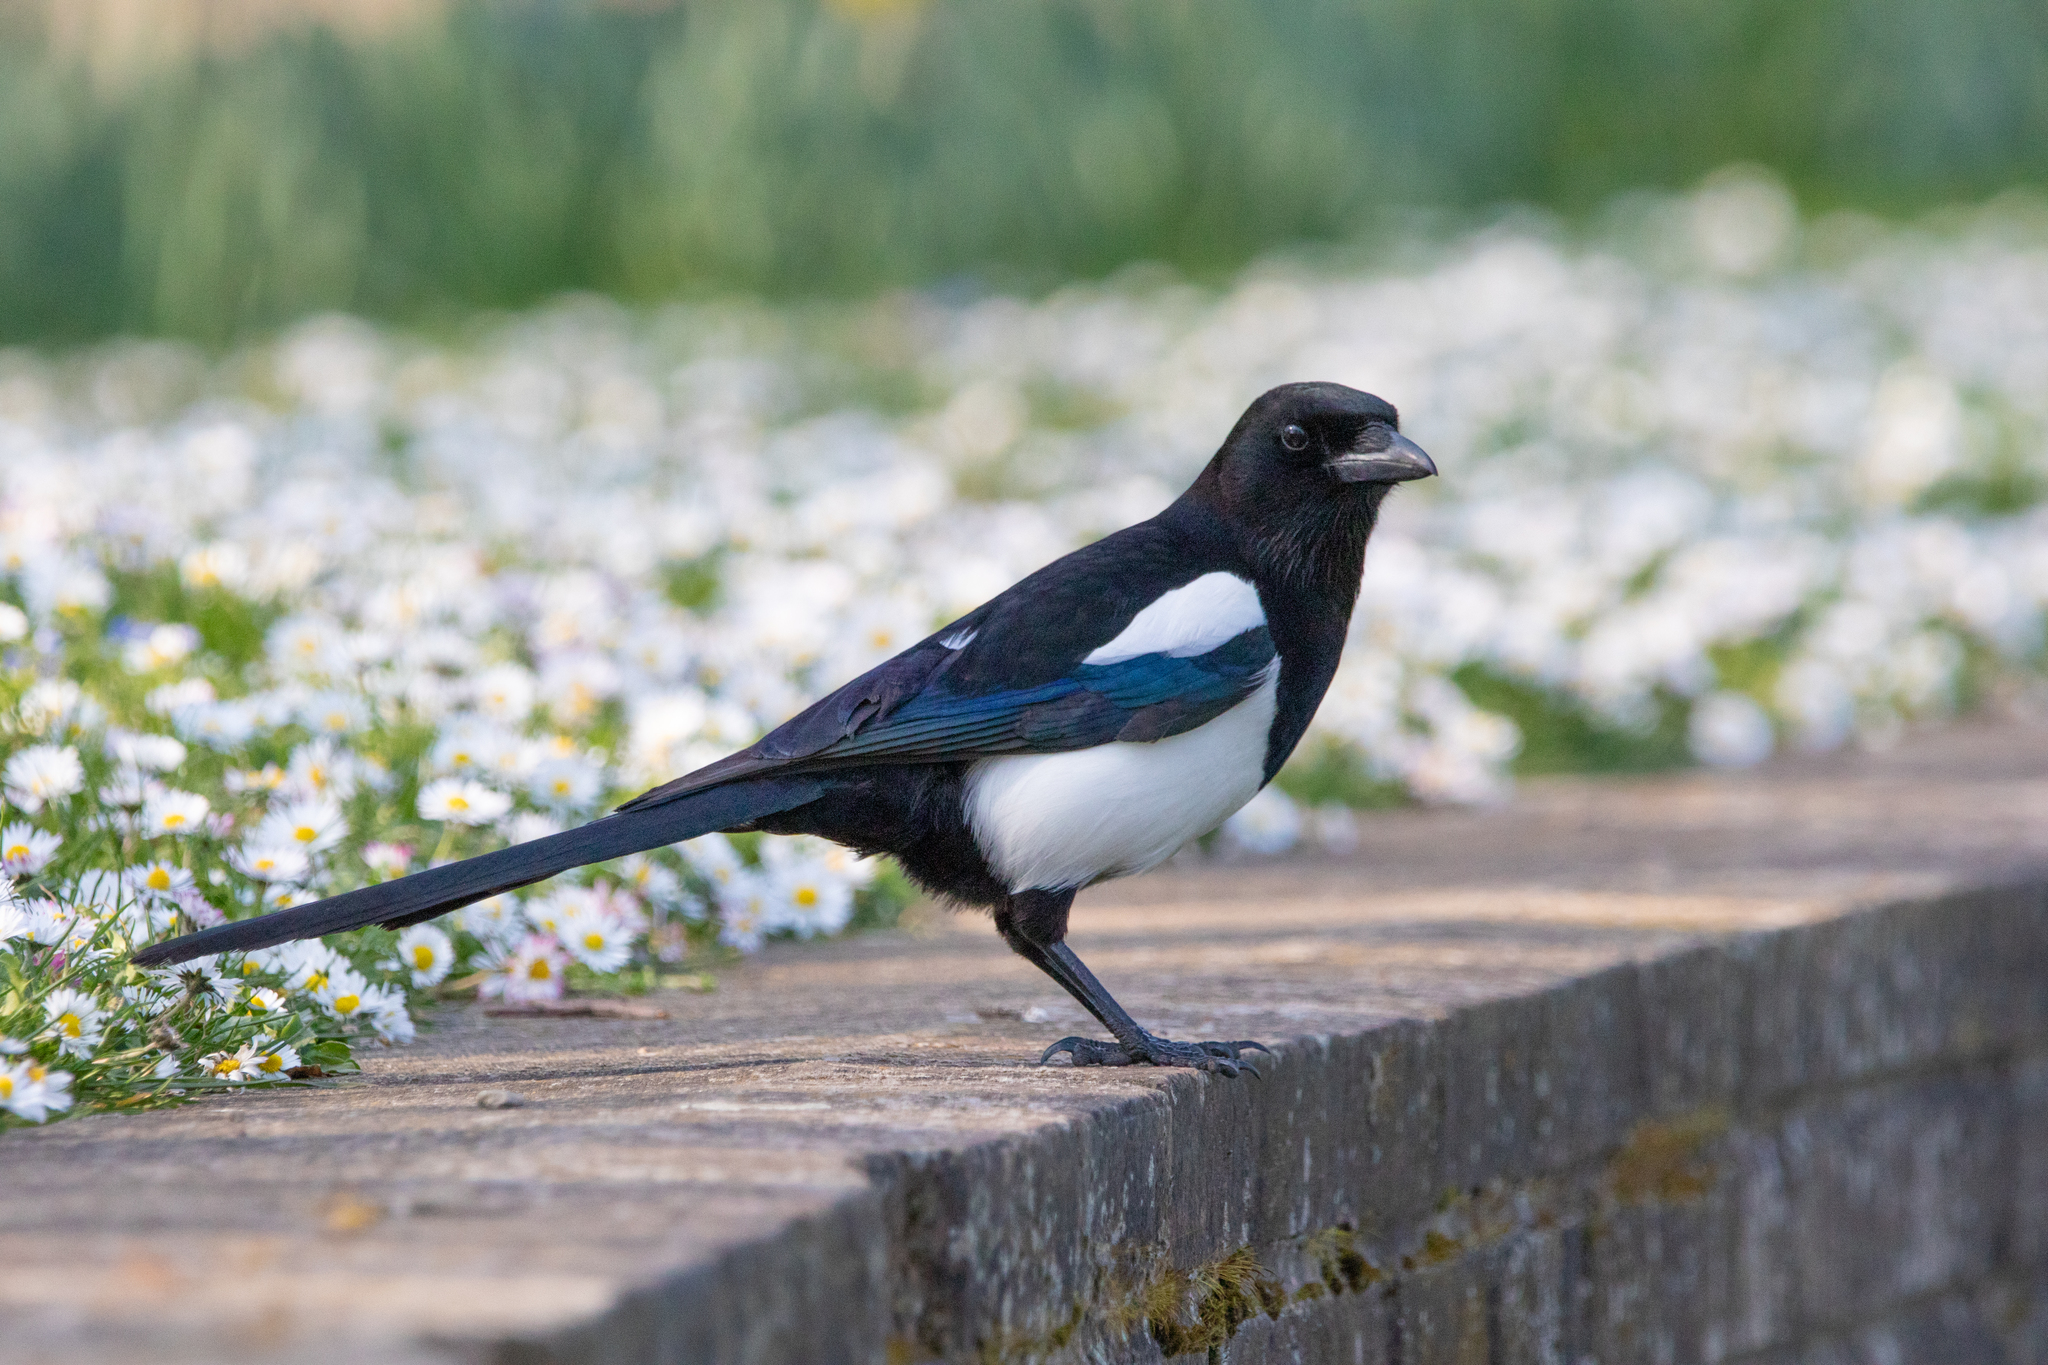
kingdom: Animalia
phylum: Chordata
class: Aves
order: Passeriformes
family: Corvidae
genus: Pica
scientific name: Pica pica
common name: Eurasian magpie
